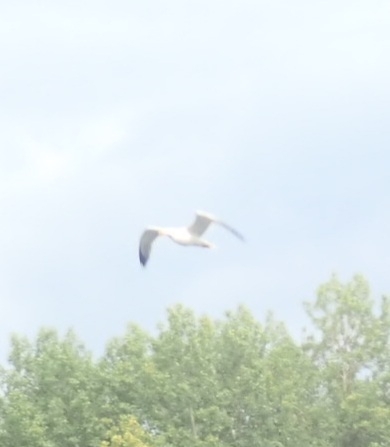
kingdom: Animalia
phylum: Chordata
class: Aves
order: Charadriiformes
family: Laridae
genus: Larus
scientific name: Larus fuscus
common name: Lesser black-backed gull
